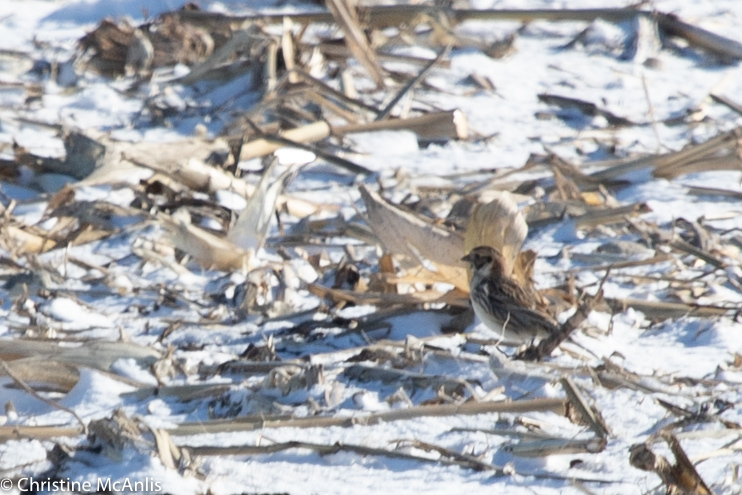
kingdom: Animalia
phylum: Chordata
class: Aves
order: Passeriformes
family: Calcariidae
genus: Calcarius
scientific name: Calcarius lapponicus
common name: Lapland longspur
